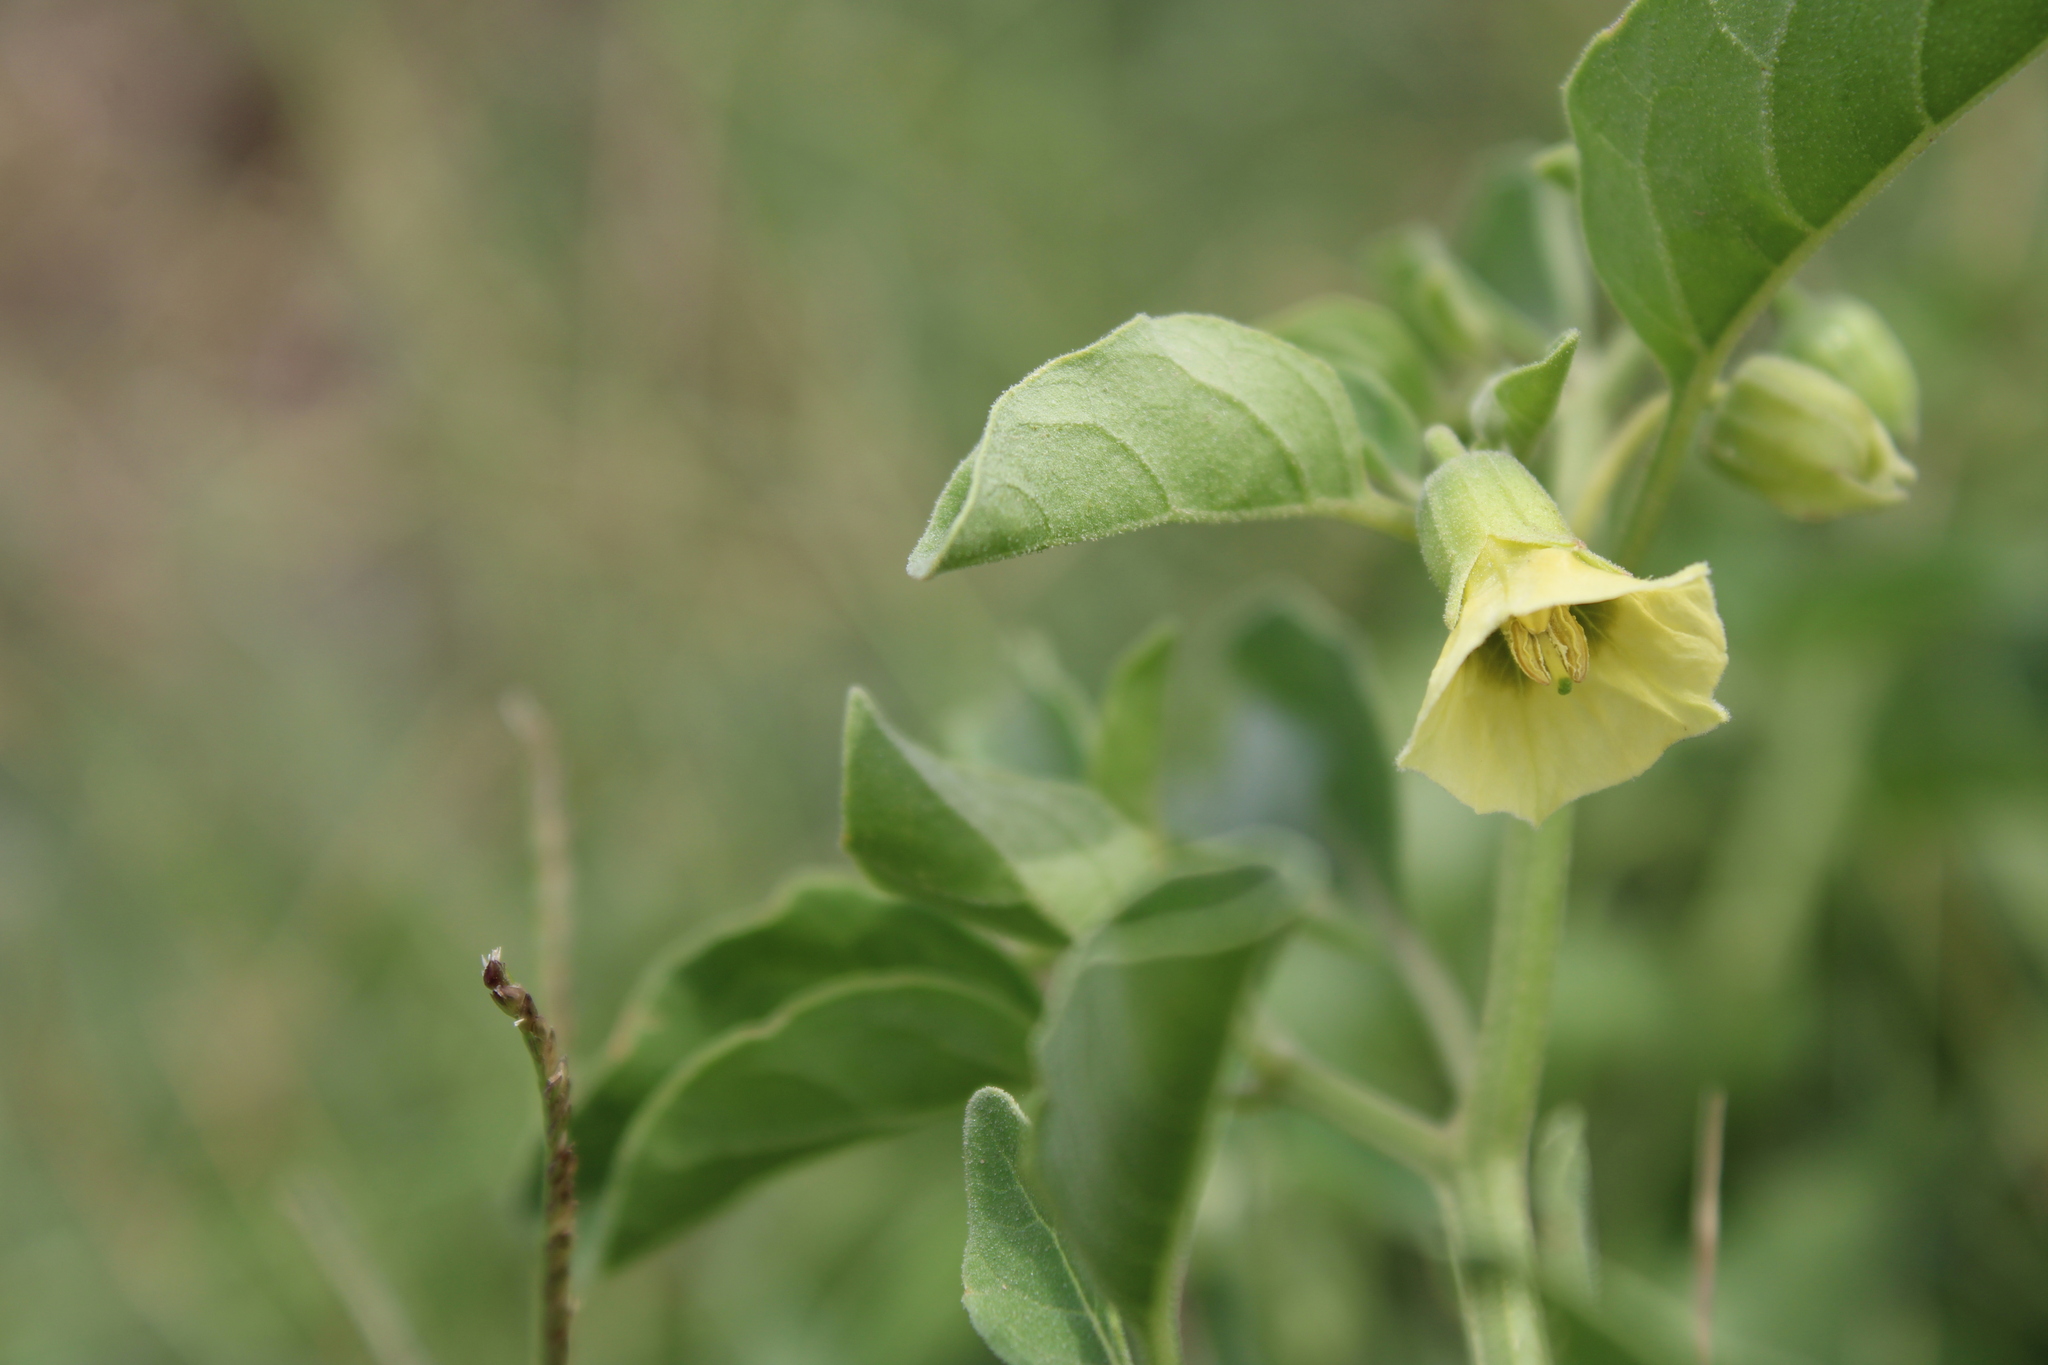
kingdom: Plantae
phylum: Tracheophyta
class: Magnoliopsida
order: Solanales
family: Solanaceae
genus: Physalis
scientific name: Physalis viscosa
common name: Stellate ground-cherry
